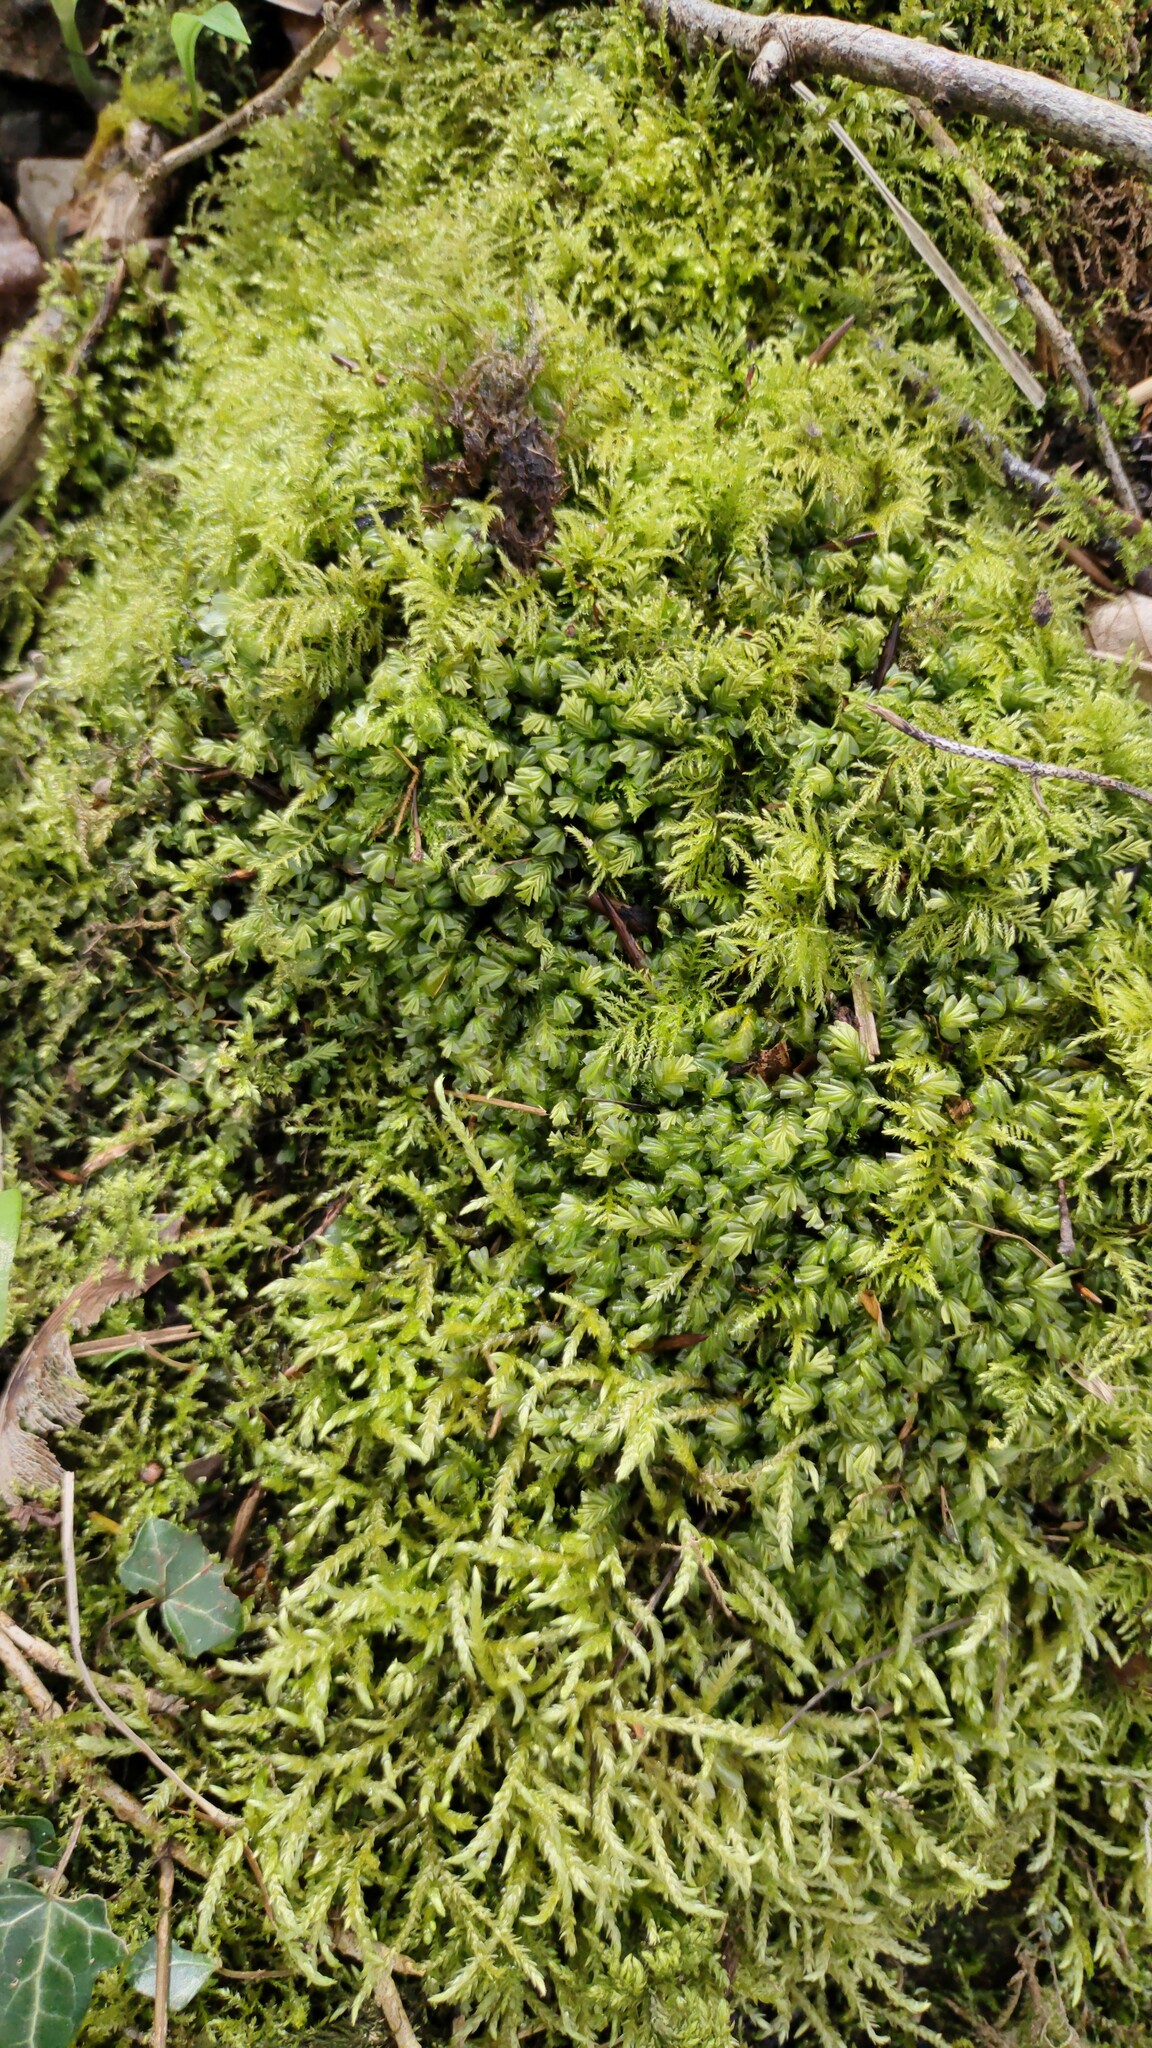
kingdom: Plantae
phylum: Marchantiophyta
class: Jungermanniopsida
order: Jungermanniales
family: Plagiochilaceae
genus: Plagiochila
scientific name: Plagiochila porelloides
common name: Lesser featherwort
